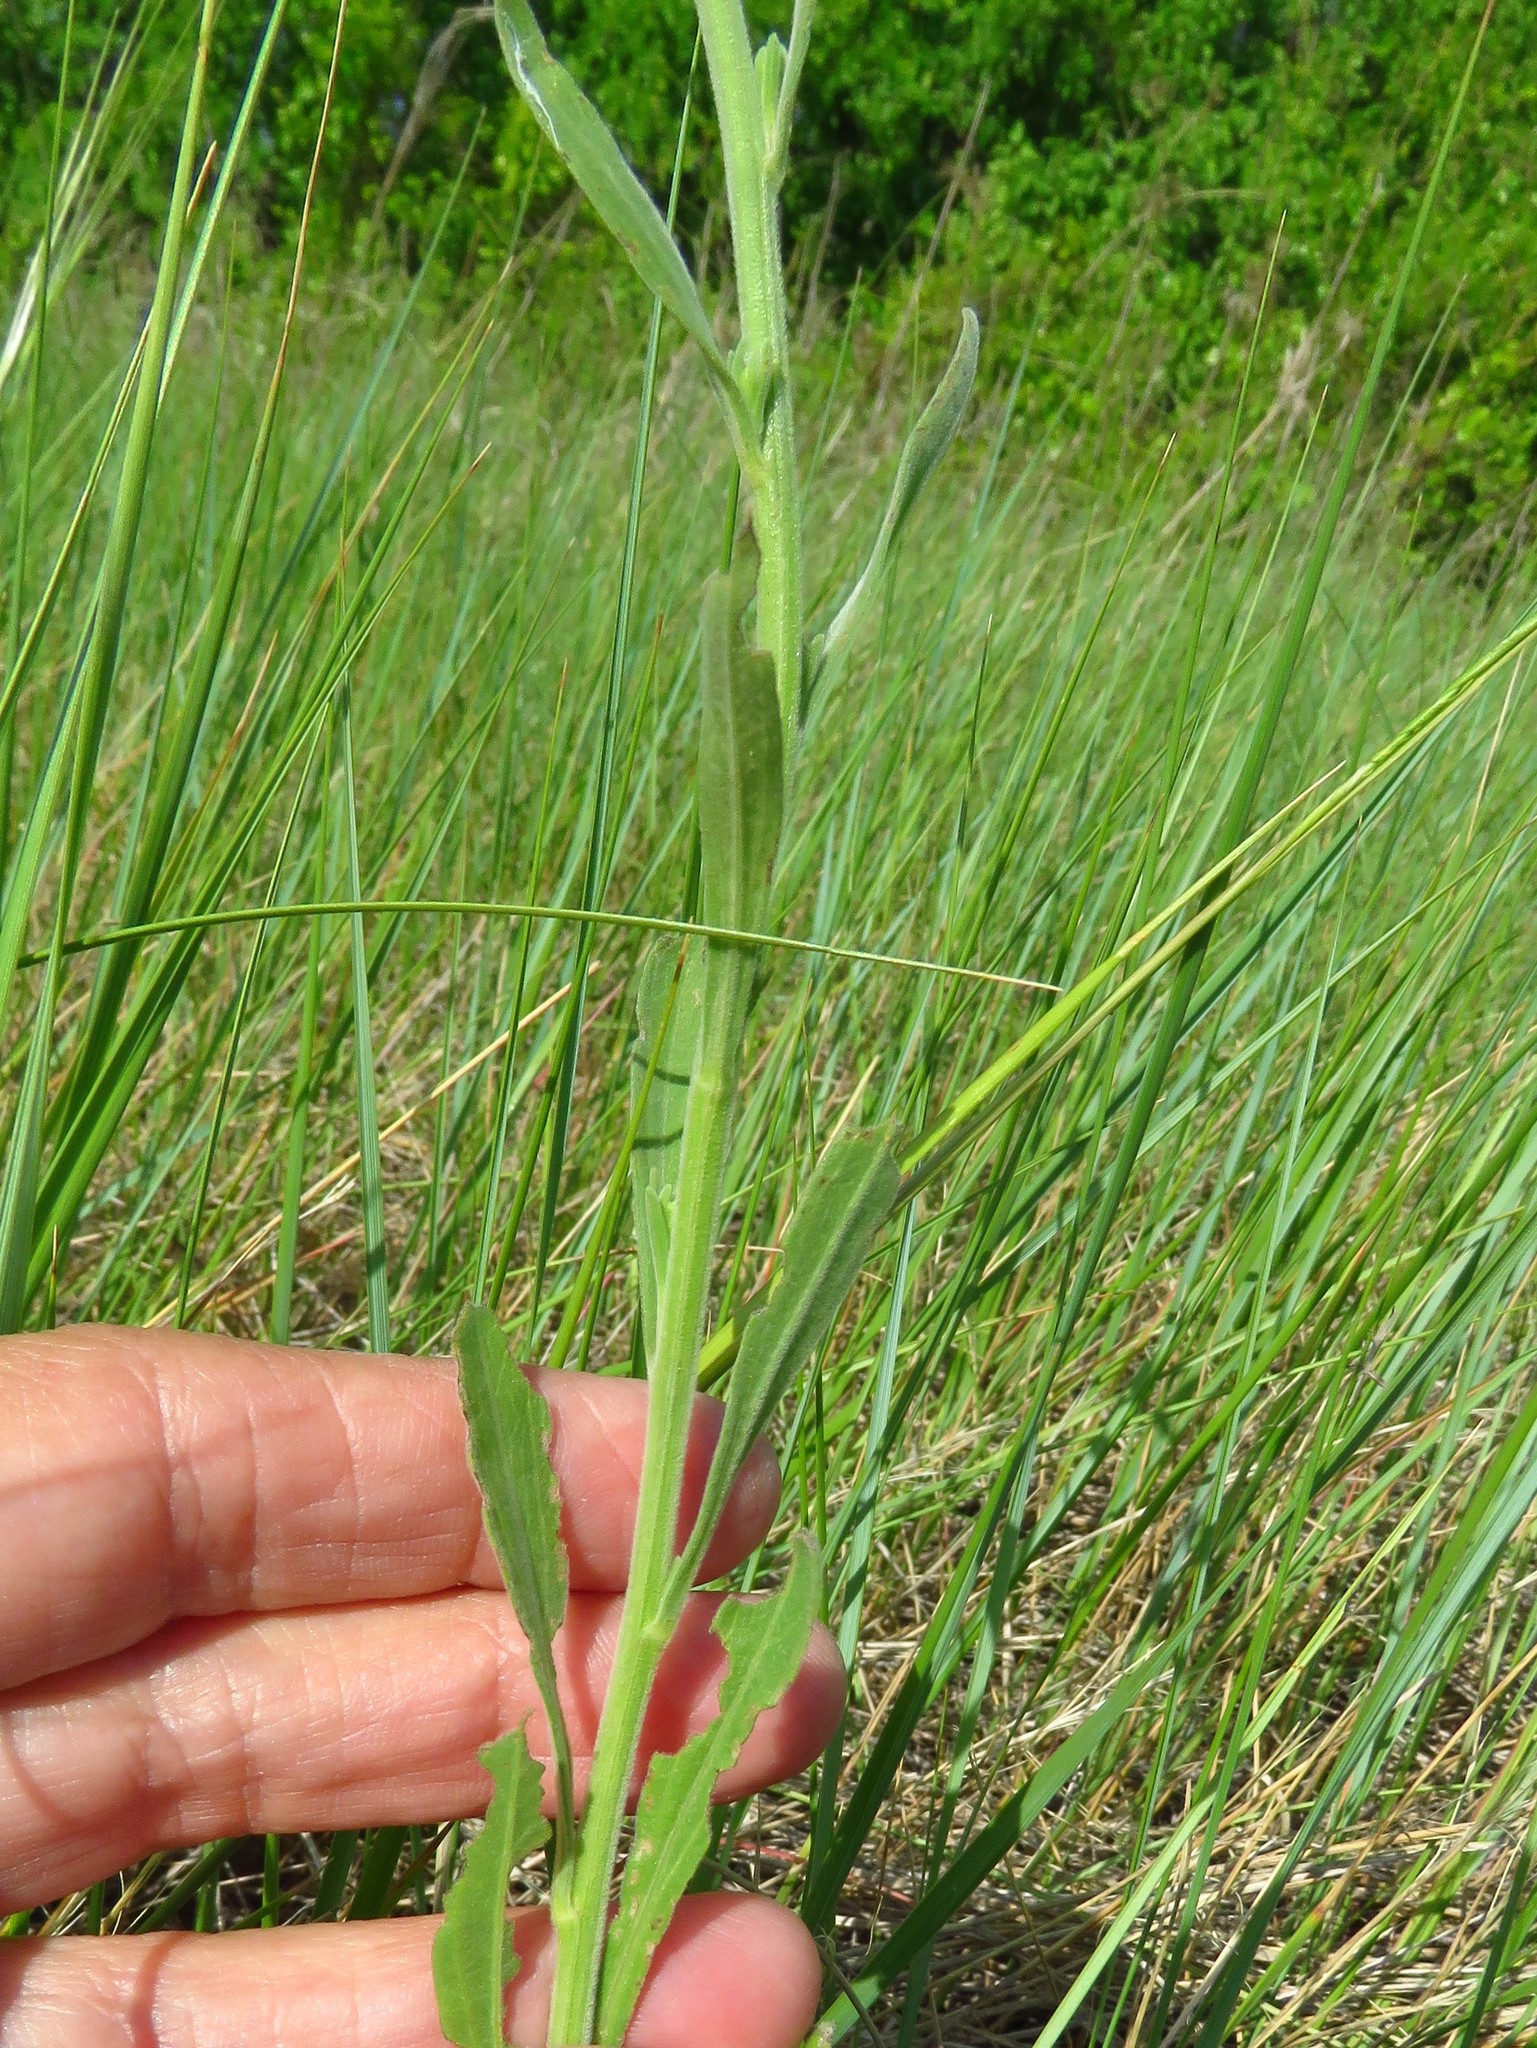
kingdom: Plantae
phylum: Tracheophyta
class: Magnoliopsida
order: Asterales
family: Asteraceae
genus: Erigeron
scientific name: Erigeron strigosus
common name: Common eastern fleabane
